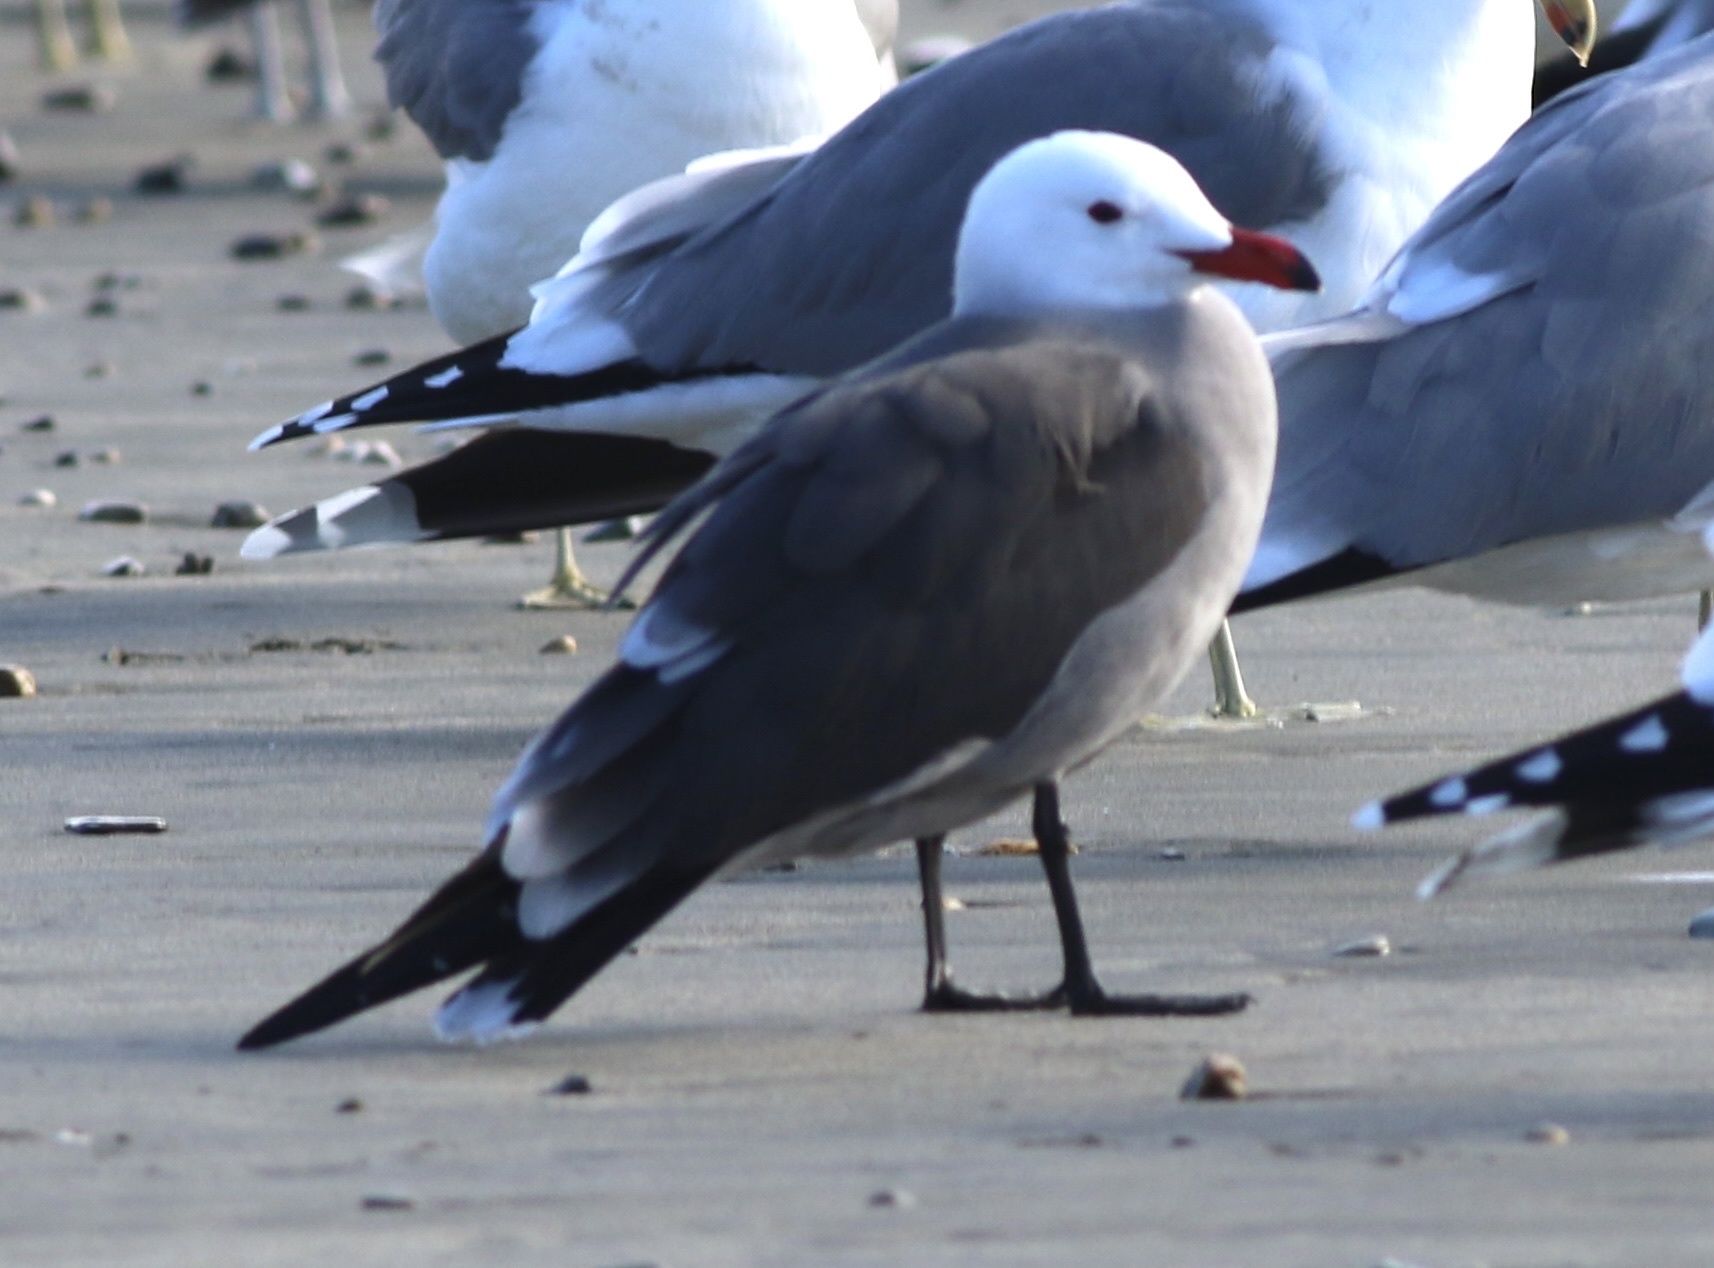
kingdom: Animalia
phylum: Chordata
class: Aves
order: Charadriiformes
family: Laridae
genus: Larus
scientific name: Larus heermanni
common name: Heermann's gull
